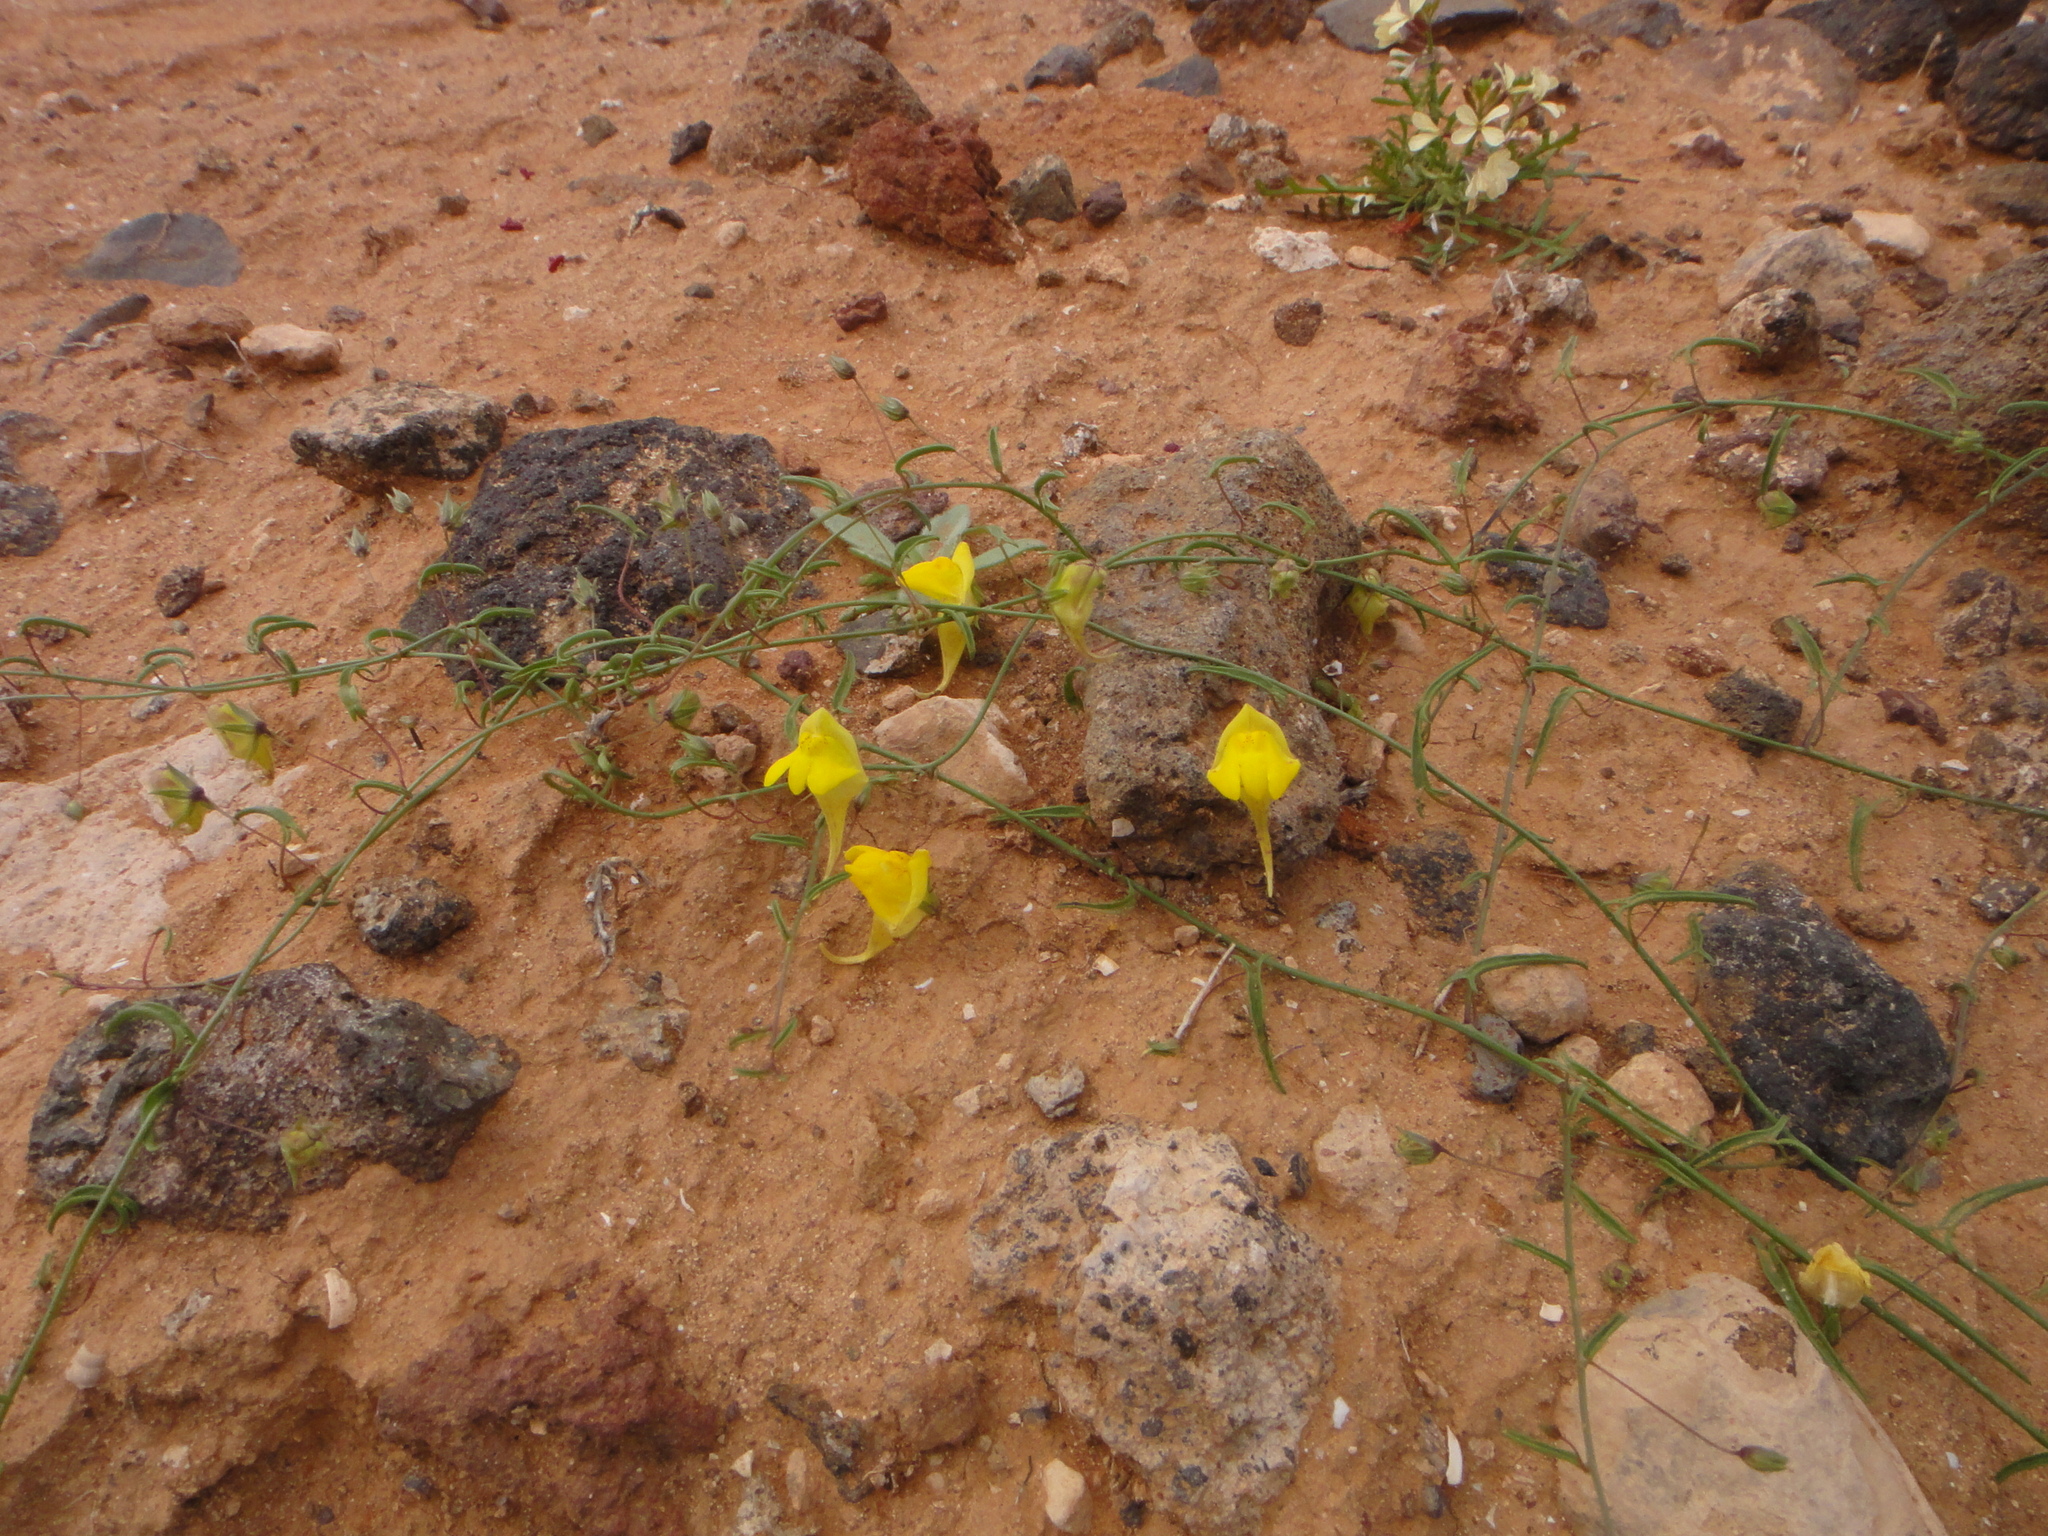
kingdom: Plantae
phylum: Tracheophyta
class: Magnoliopsida
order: Lamiales
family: Plantaginaceae
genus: Nanorrhinum
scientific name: Nanorrhinum heterophyllum
